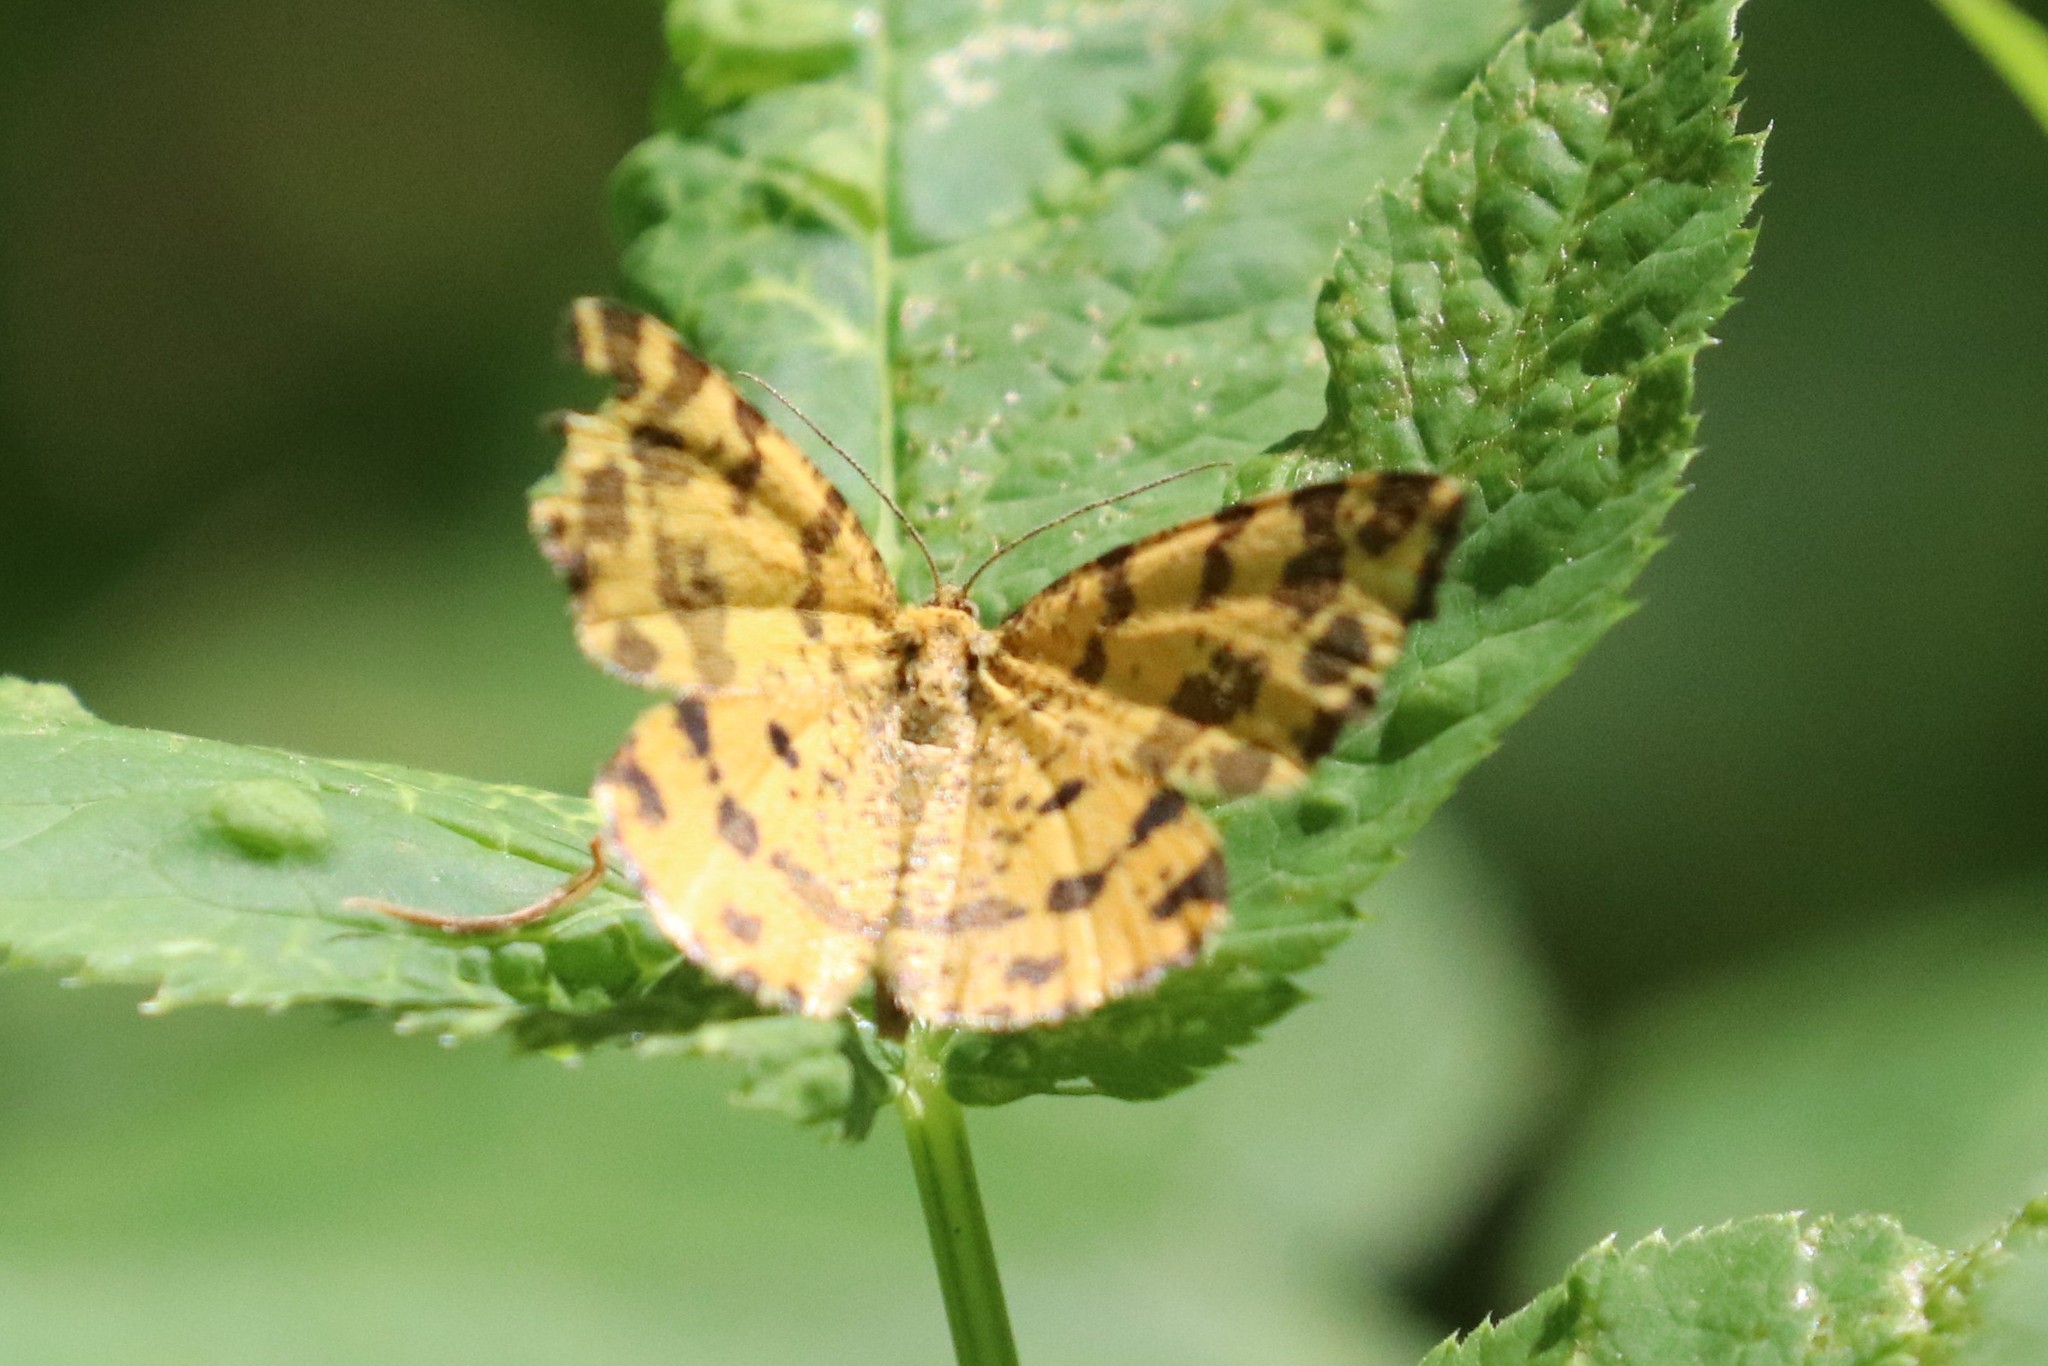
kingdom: Animalia
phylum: Arthropoda
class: Insecta
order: Lepidoptera
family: Geometridae
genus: Pseudopanthera
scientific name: Pseudopanthera macularia
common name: Speckled yellow
